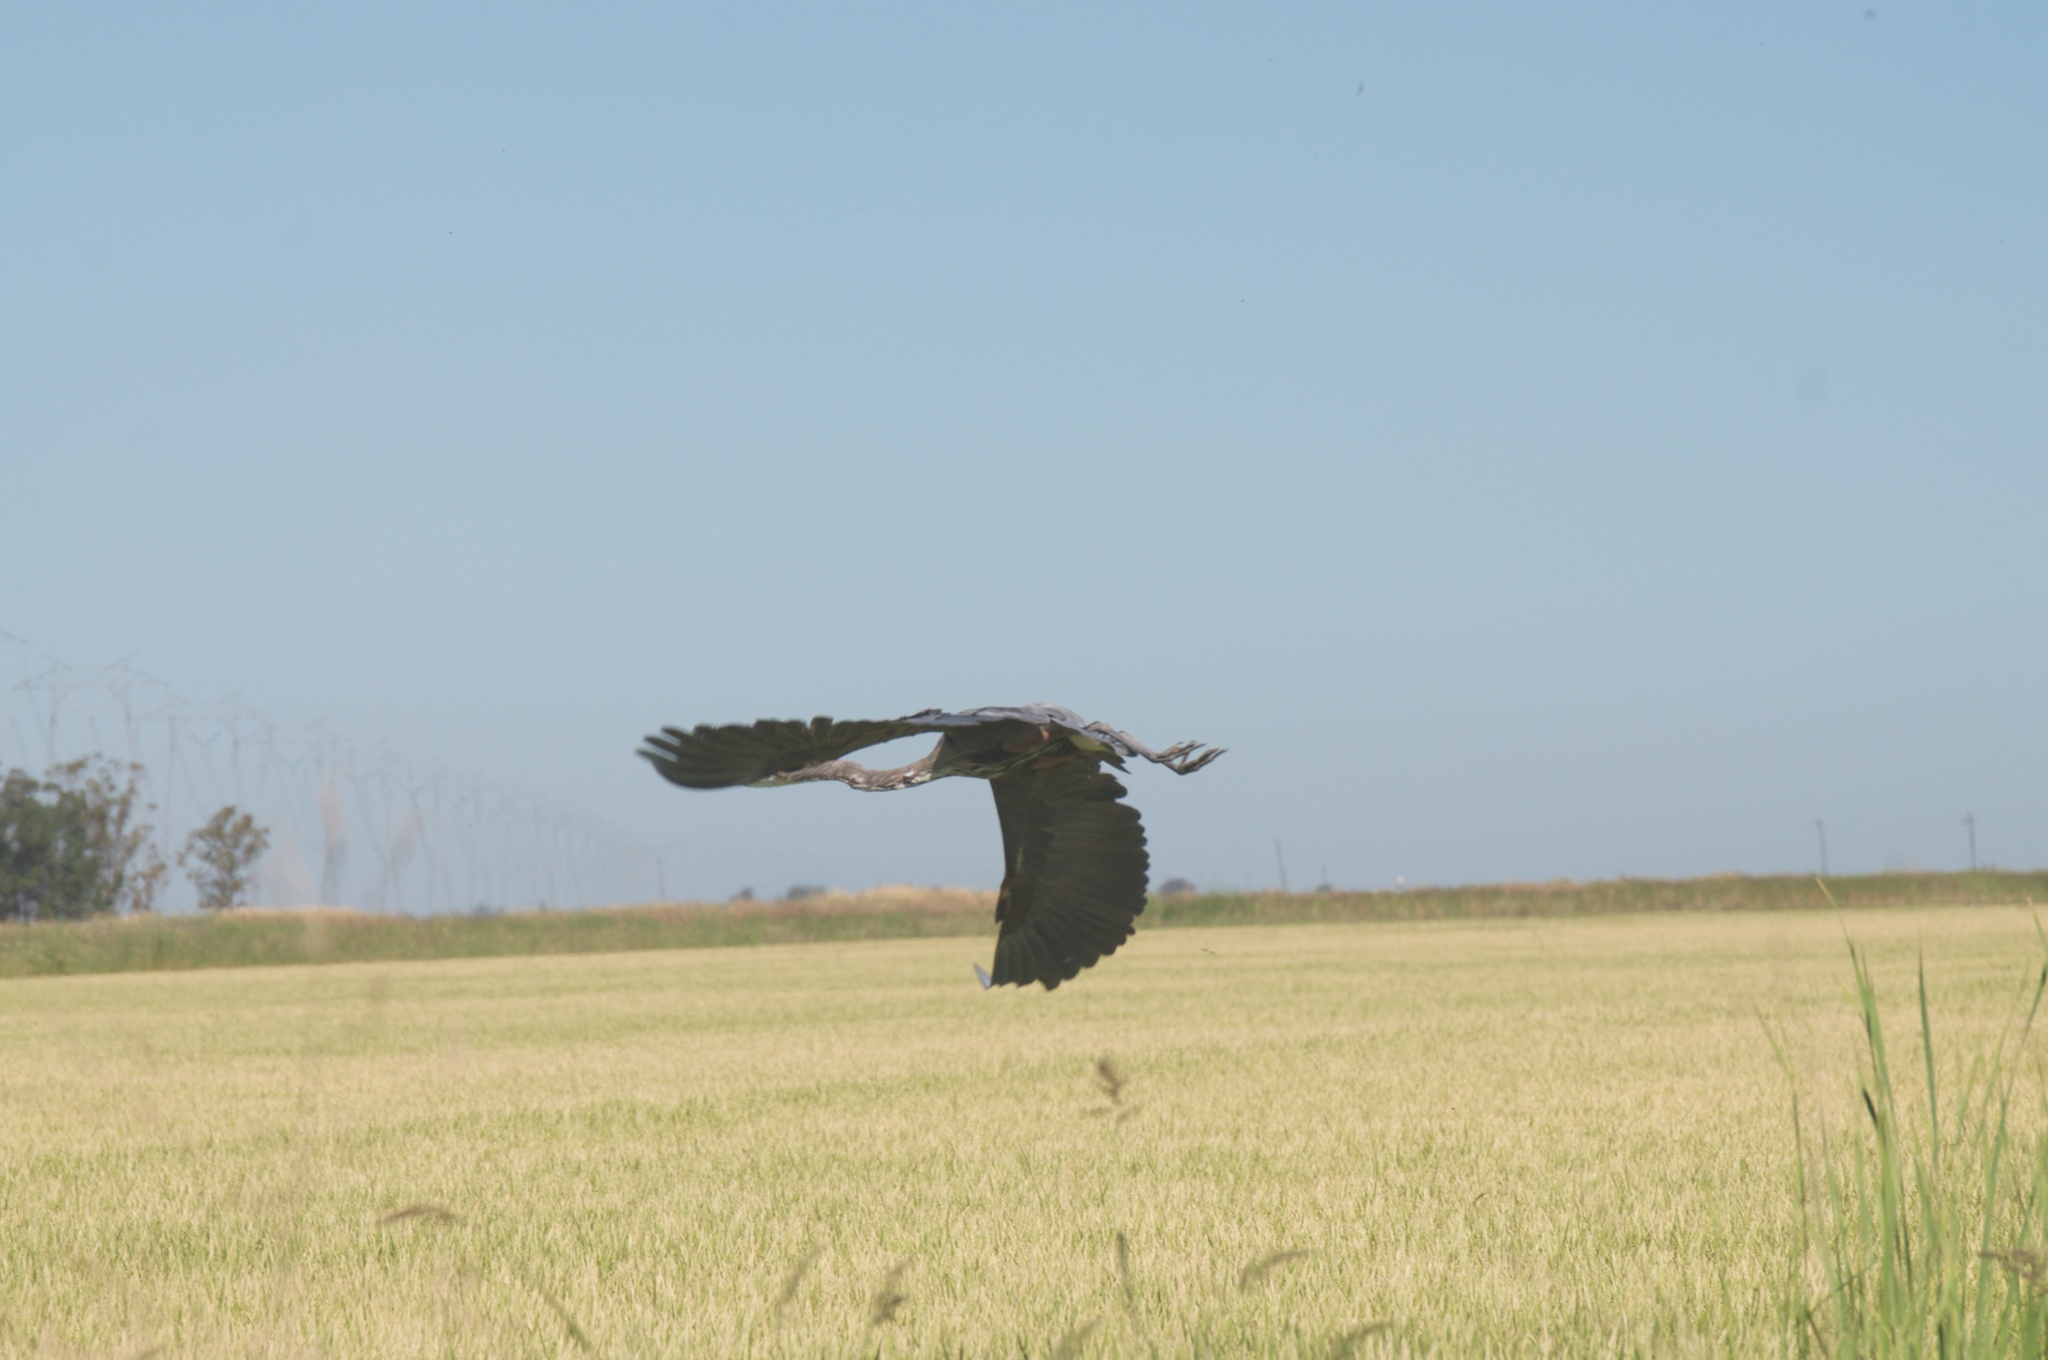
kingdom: Animalia
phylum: Chordata
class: Aves
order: Pelecaniformes
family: Ardeidae
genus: Ardea
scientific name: Ardea herodias
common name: Great blue heron
